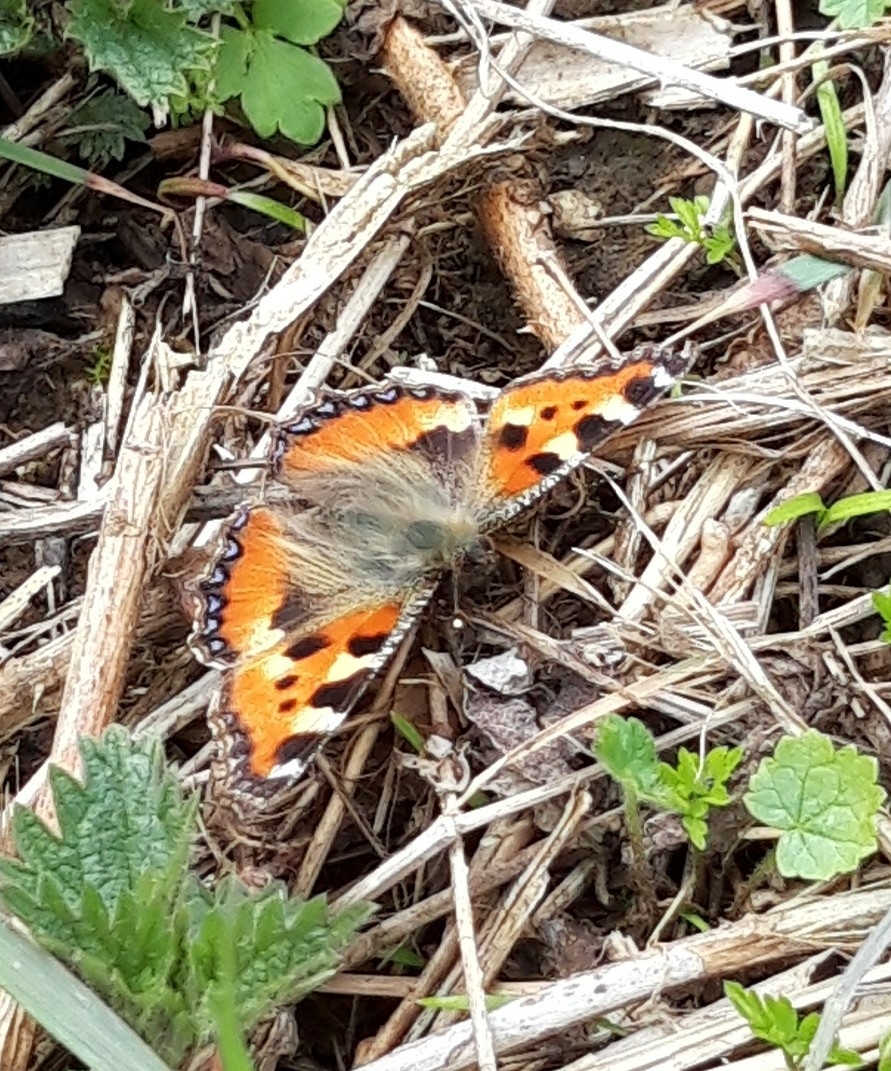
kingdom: Animalia
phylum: Arthropoda
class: Insecta
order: Lepidoptera
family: Nymphalidae
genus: Aglais
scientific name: Aglais urticae
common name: Small tortoiseshell
